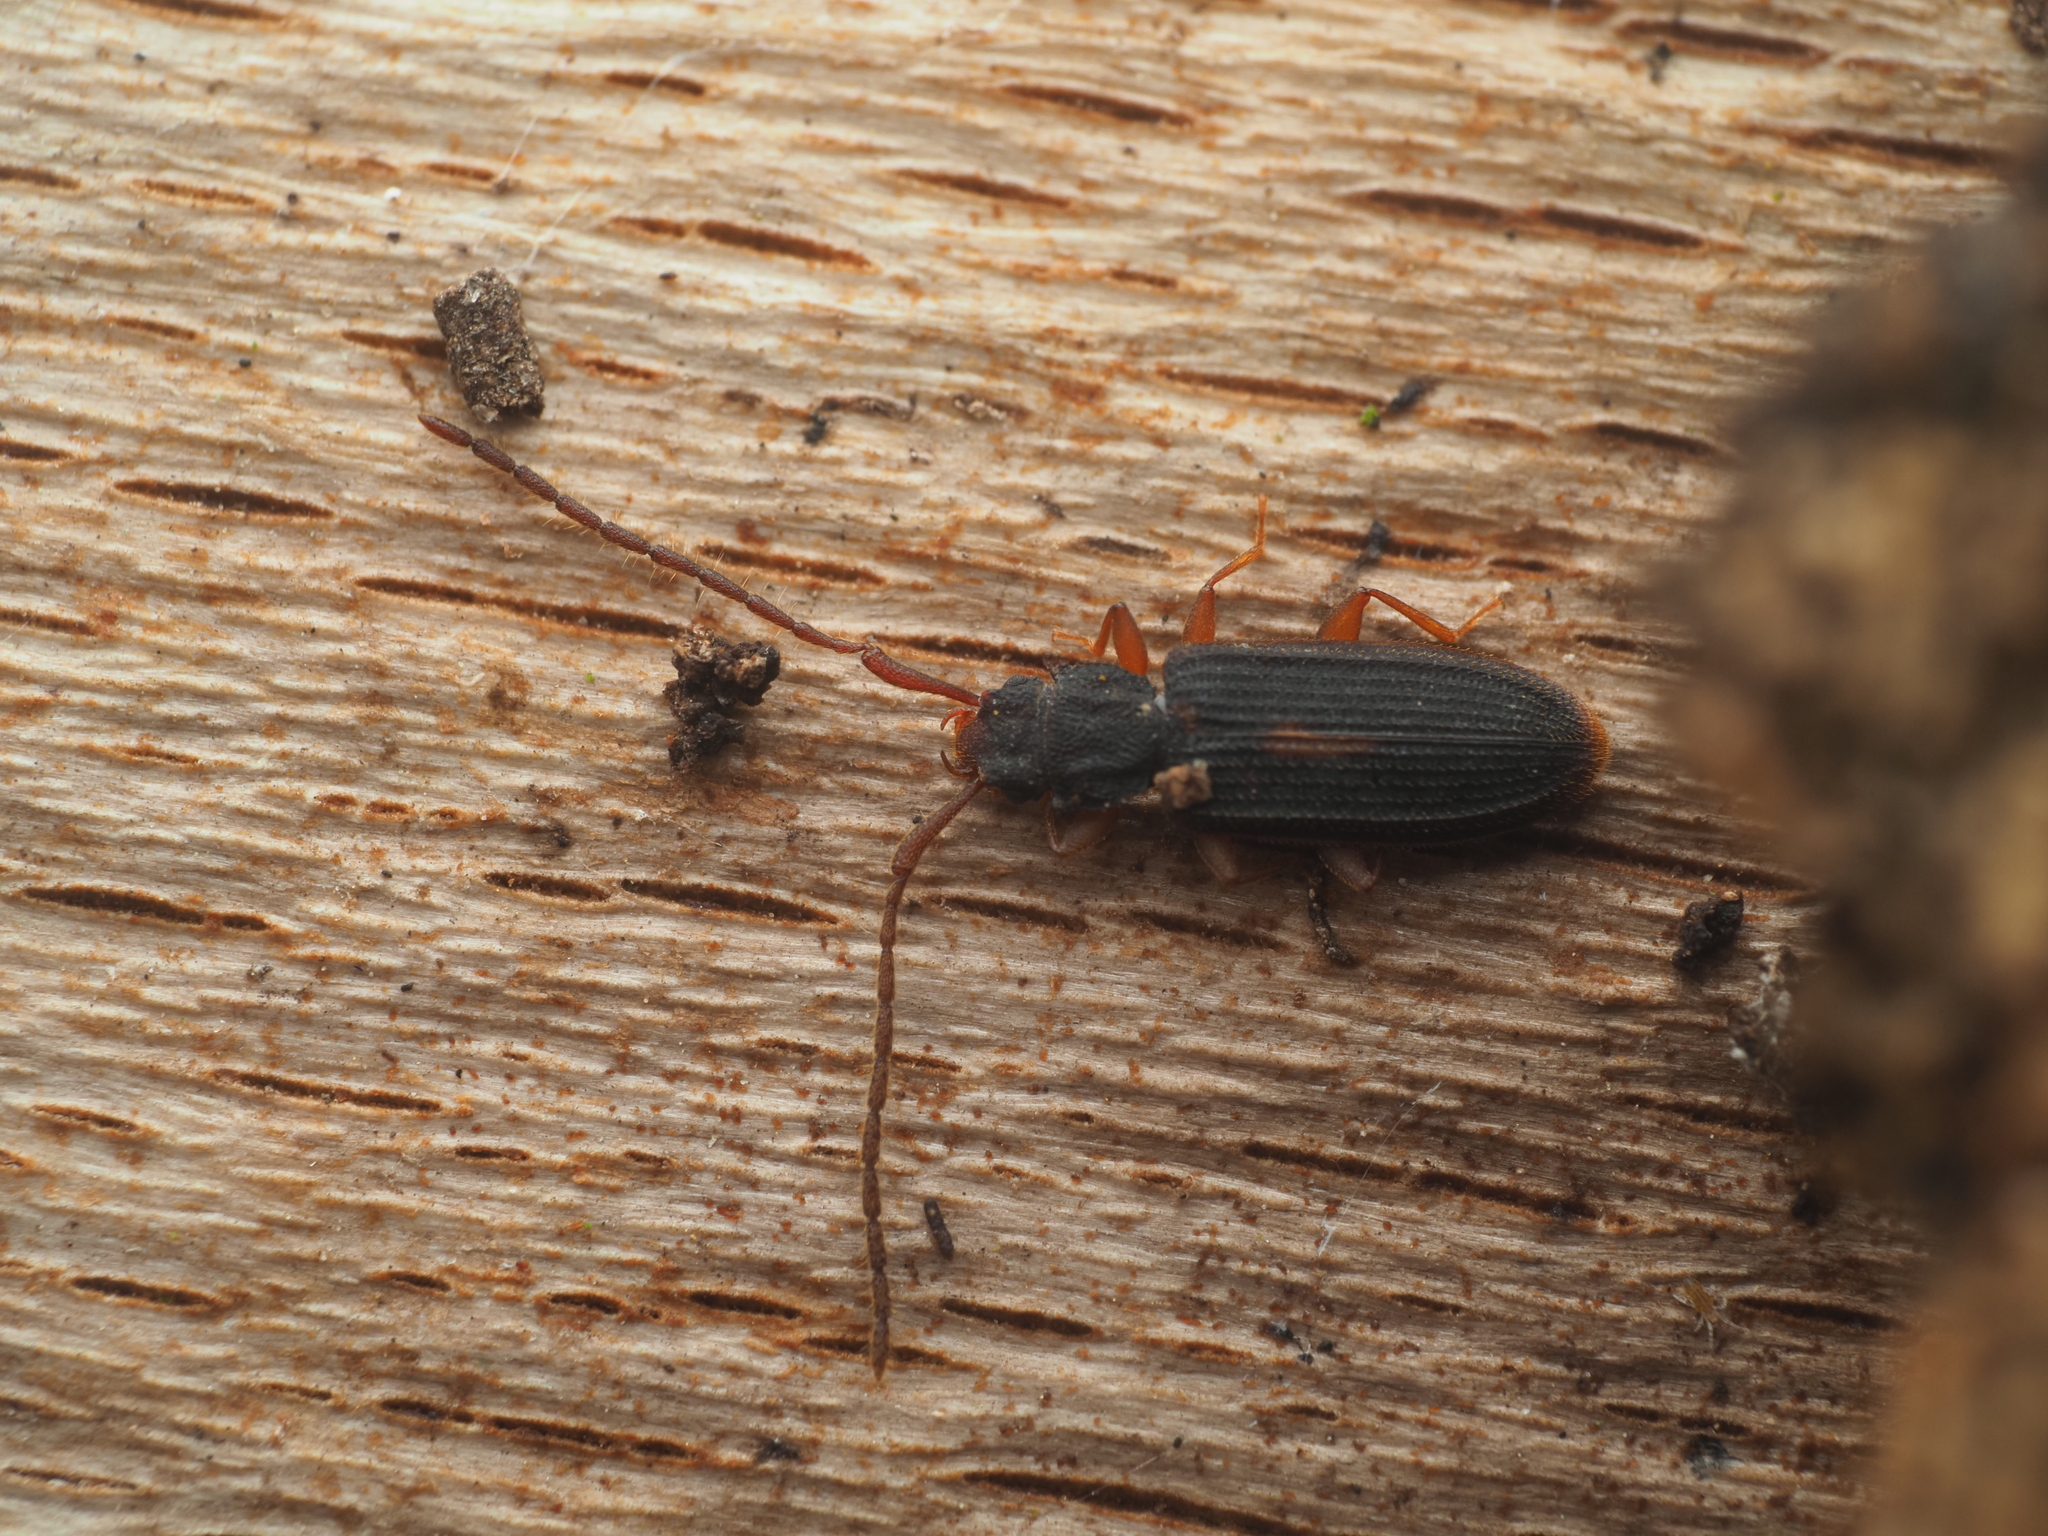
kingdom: Animalia
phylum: Arthropoda
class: Insecta
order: Coleoptera
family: Silvanidae
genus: Uleiota
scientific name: Uleiota planatus
